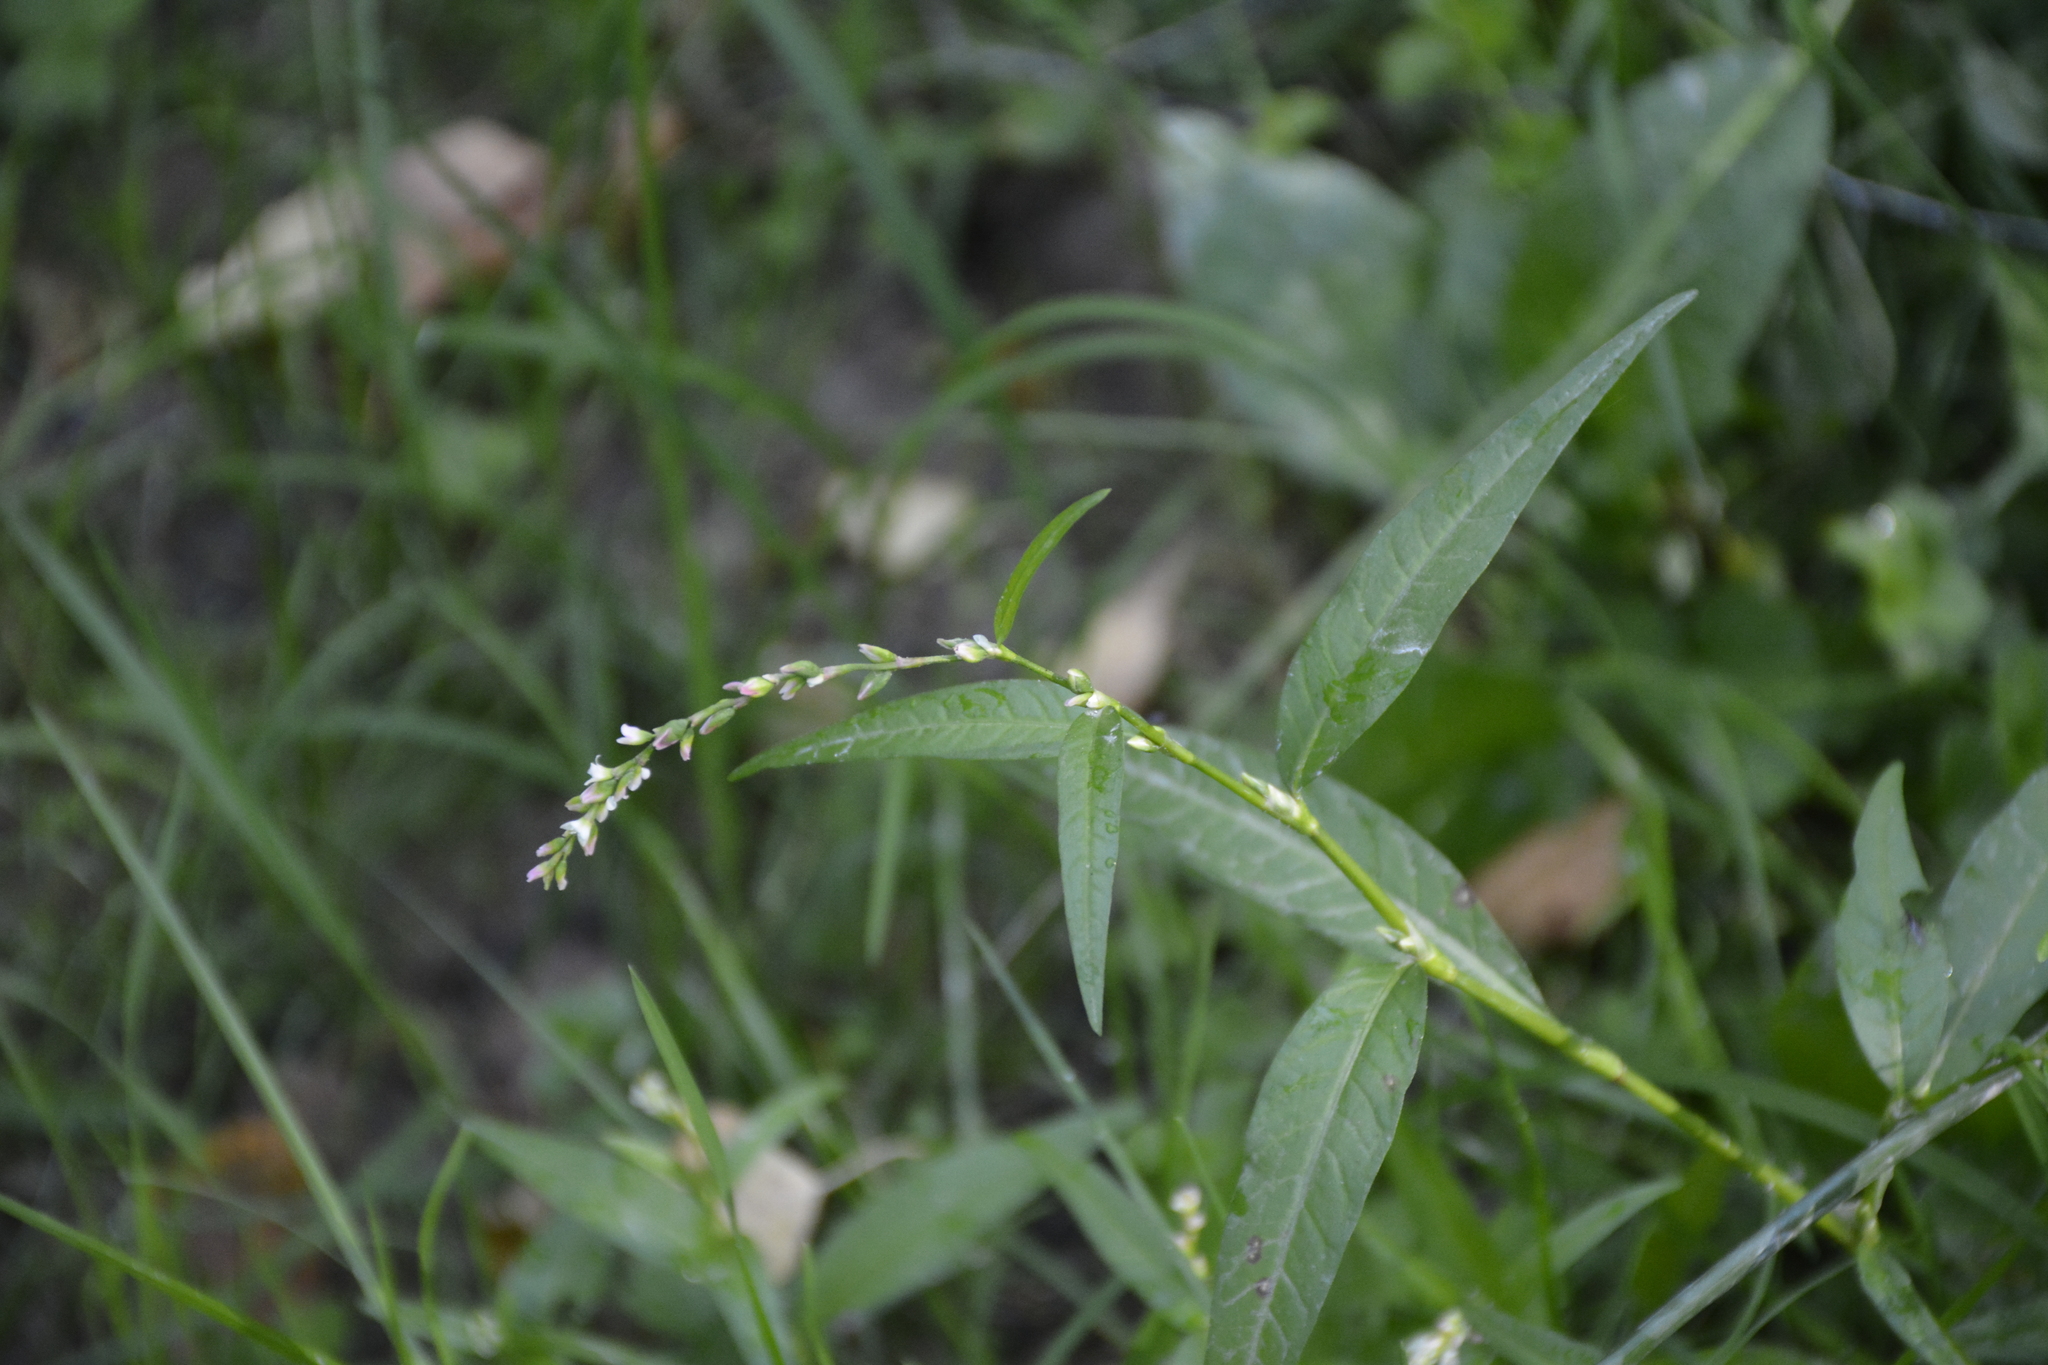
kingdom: Plantae
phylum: Tracheophyta
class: Magnoliopsida
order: Caryophyllales
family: Polygonaceae
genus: Persicaria
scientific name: Persicaria hydropiper
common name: Water-pepper
